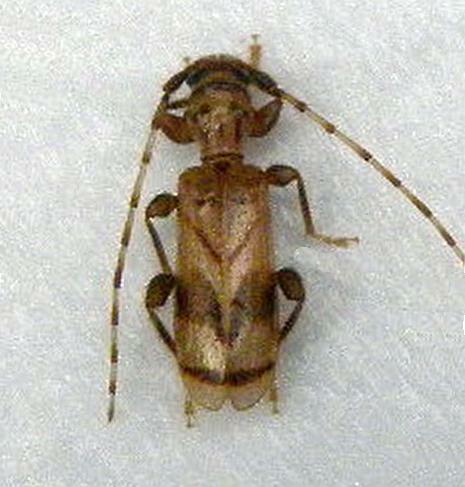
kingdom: Animalia
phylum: Arthropoda
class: Insecta
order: Coleoptera
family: Cerambycidae
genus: Obrium
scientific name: Obrium maculatum
